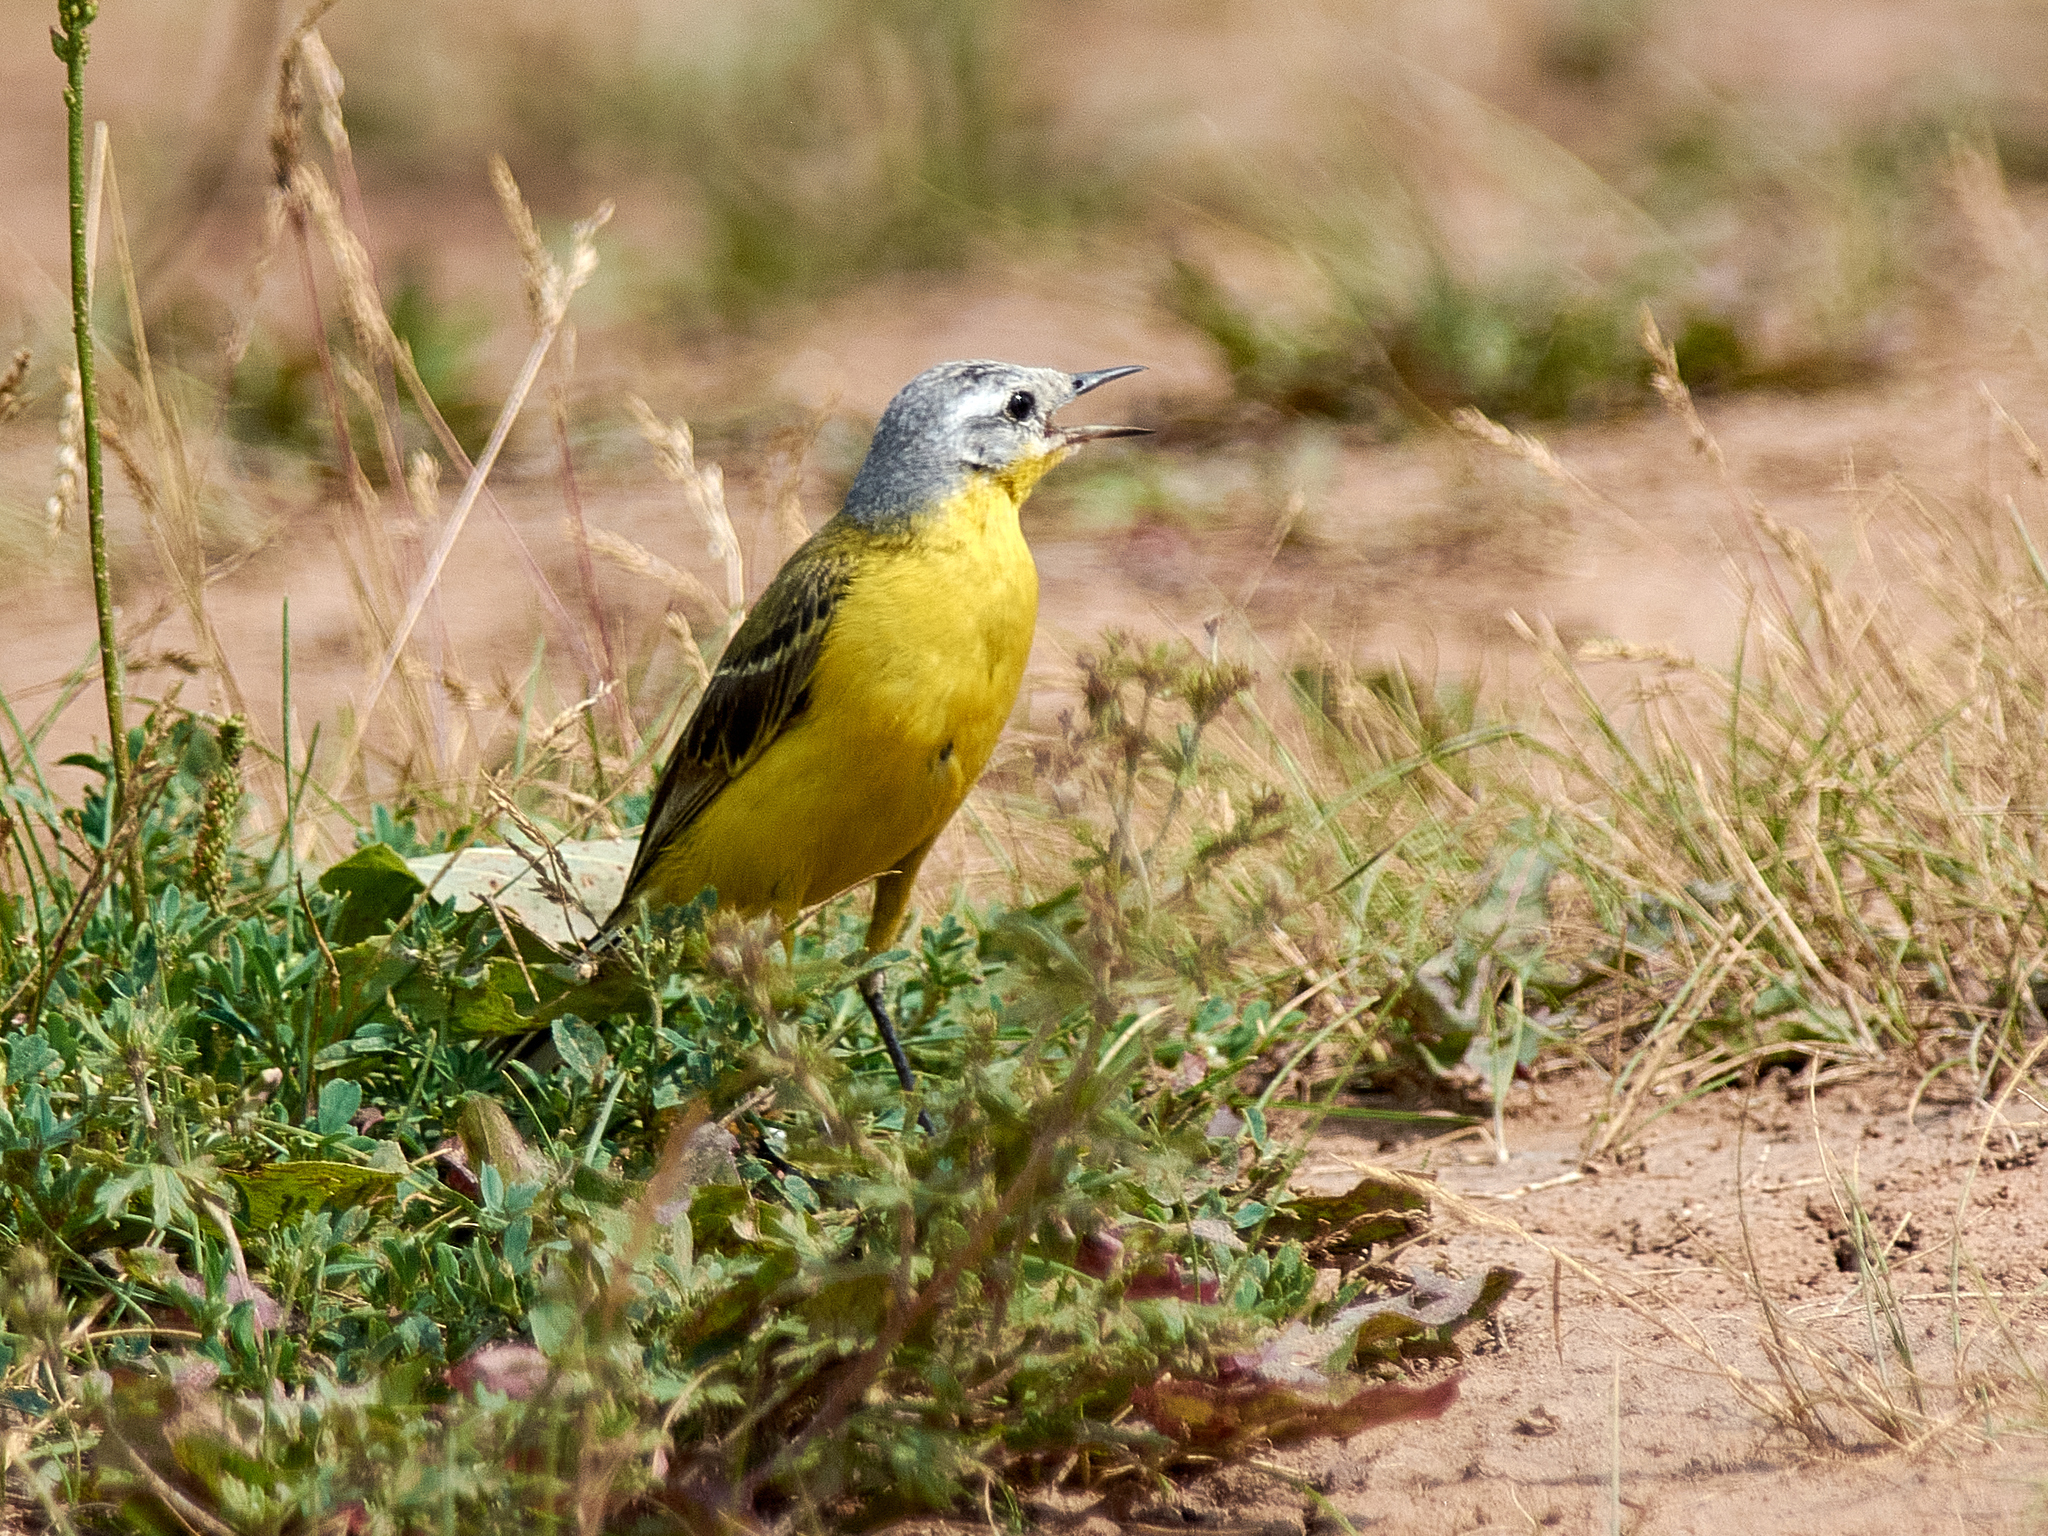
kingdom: Animalia
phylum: Chordata
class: Aves
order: Passeriformes
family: Motacillidae
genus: Motacilla
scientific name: Motacilla flava
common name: Western yellow wagtail
